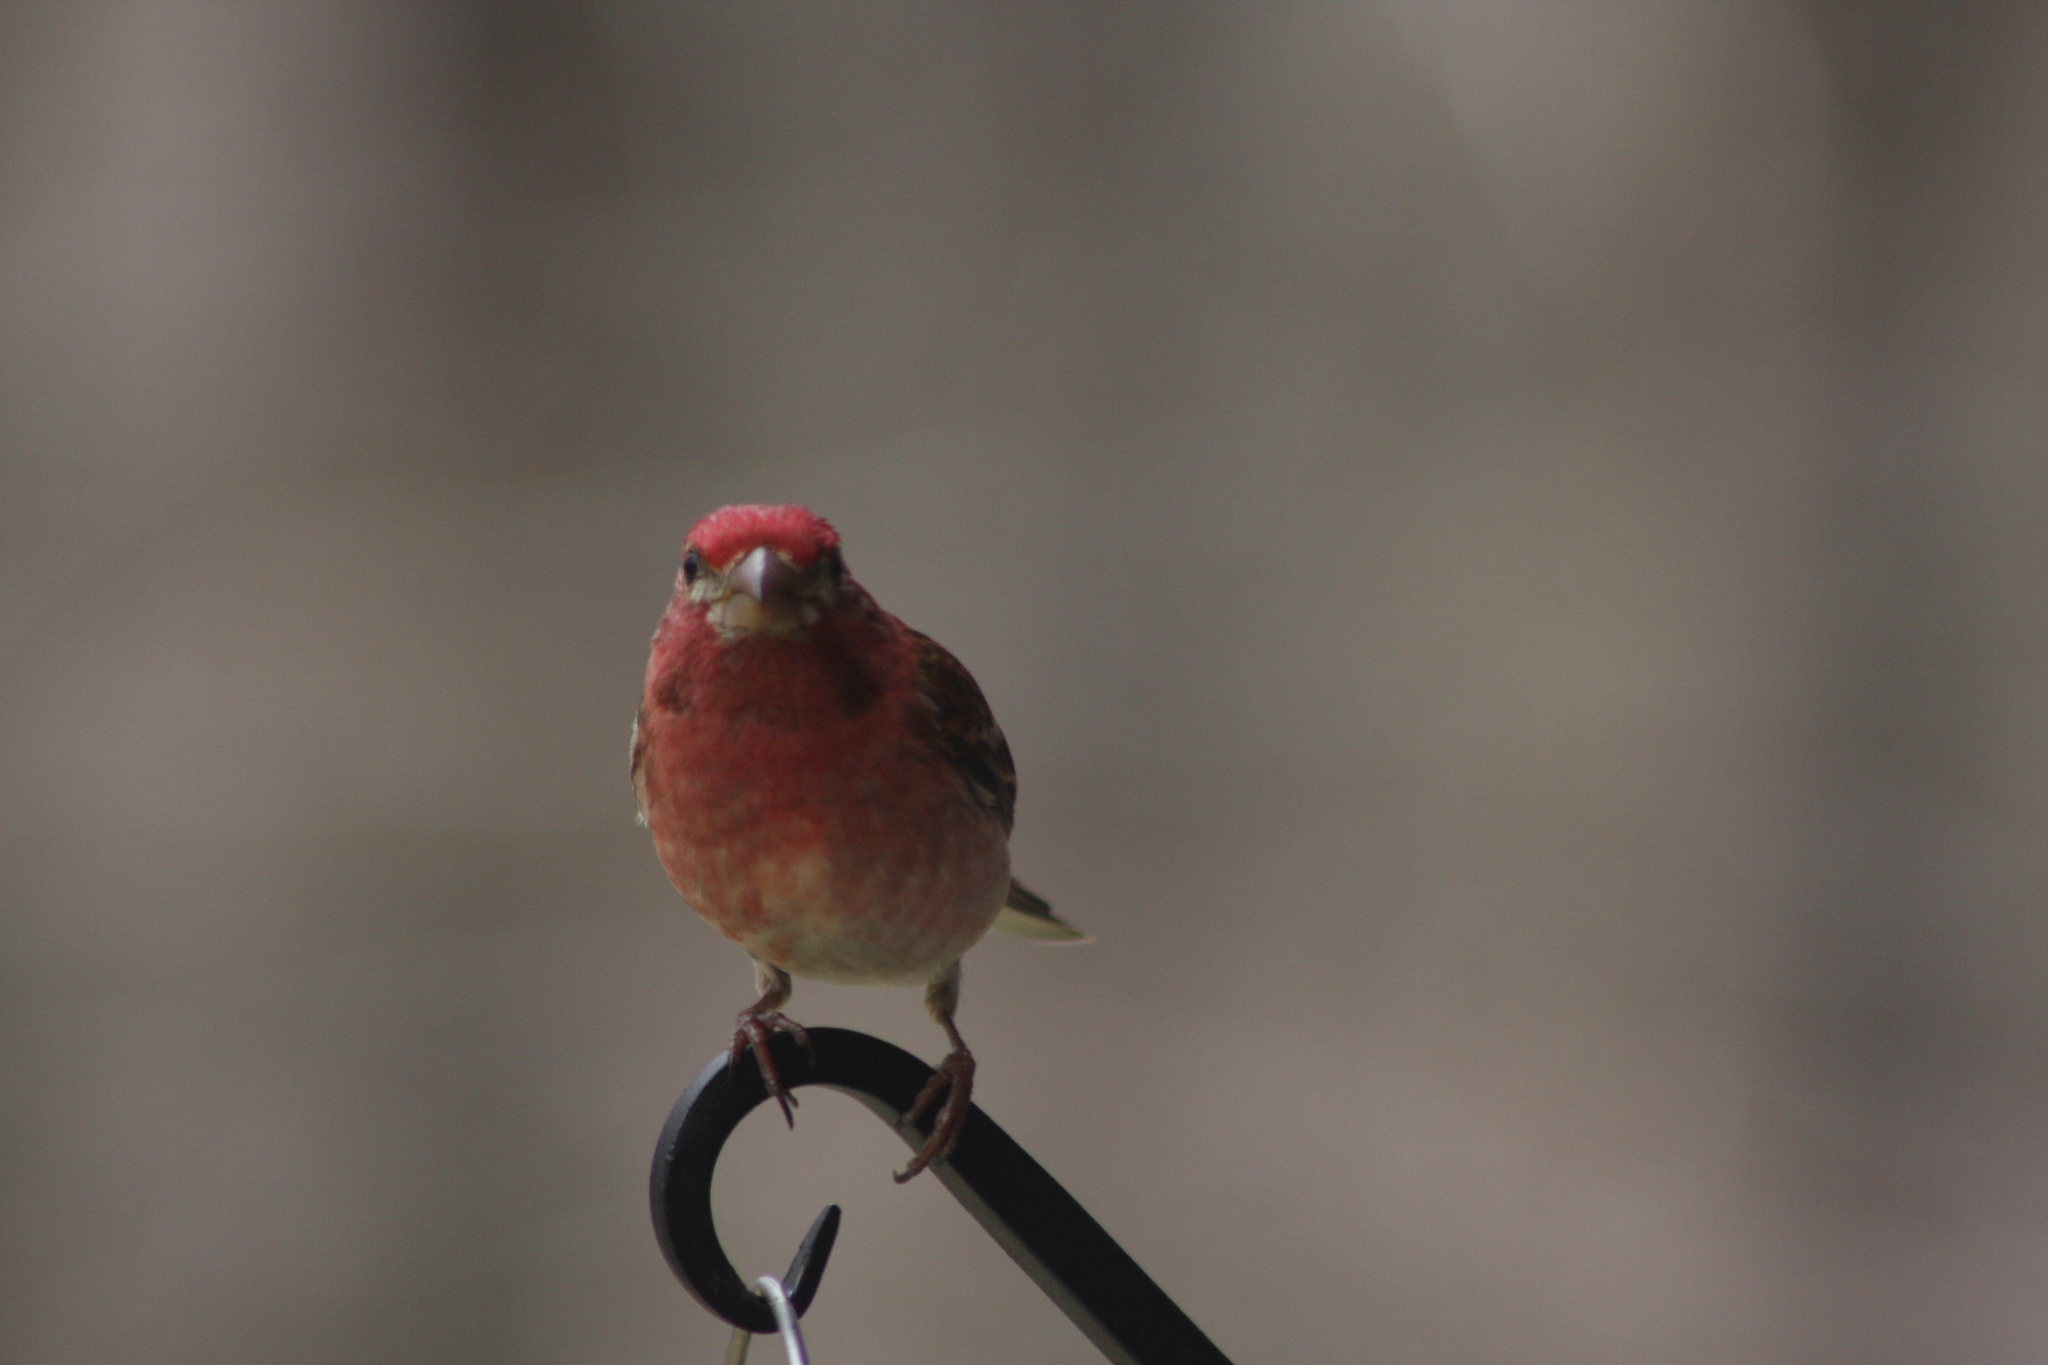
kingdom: Animalia
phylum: Chordata
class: Aves
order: Passeriformes
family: Fringillidae
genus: Haemorhous
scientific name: Haemorhous purpureus
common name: Purple finch
